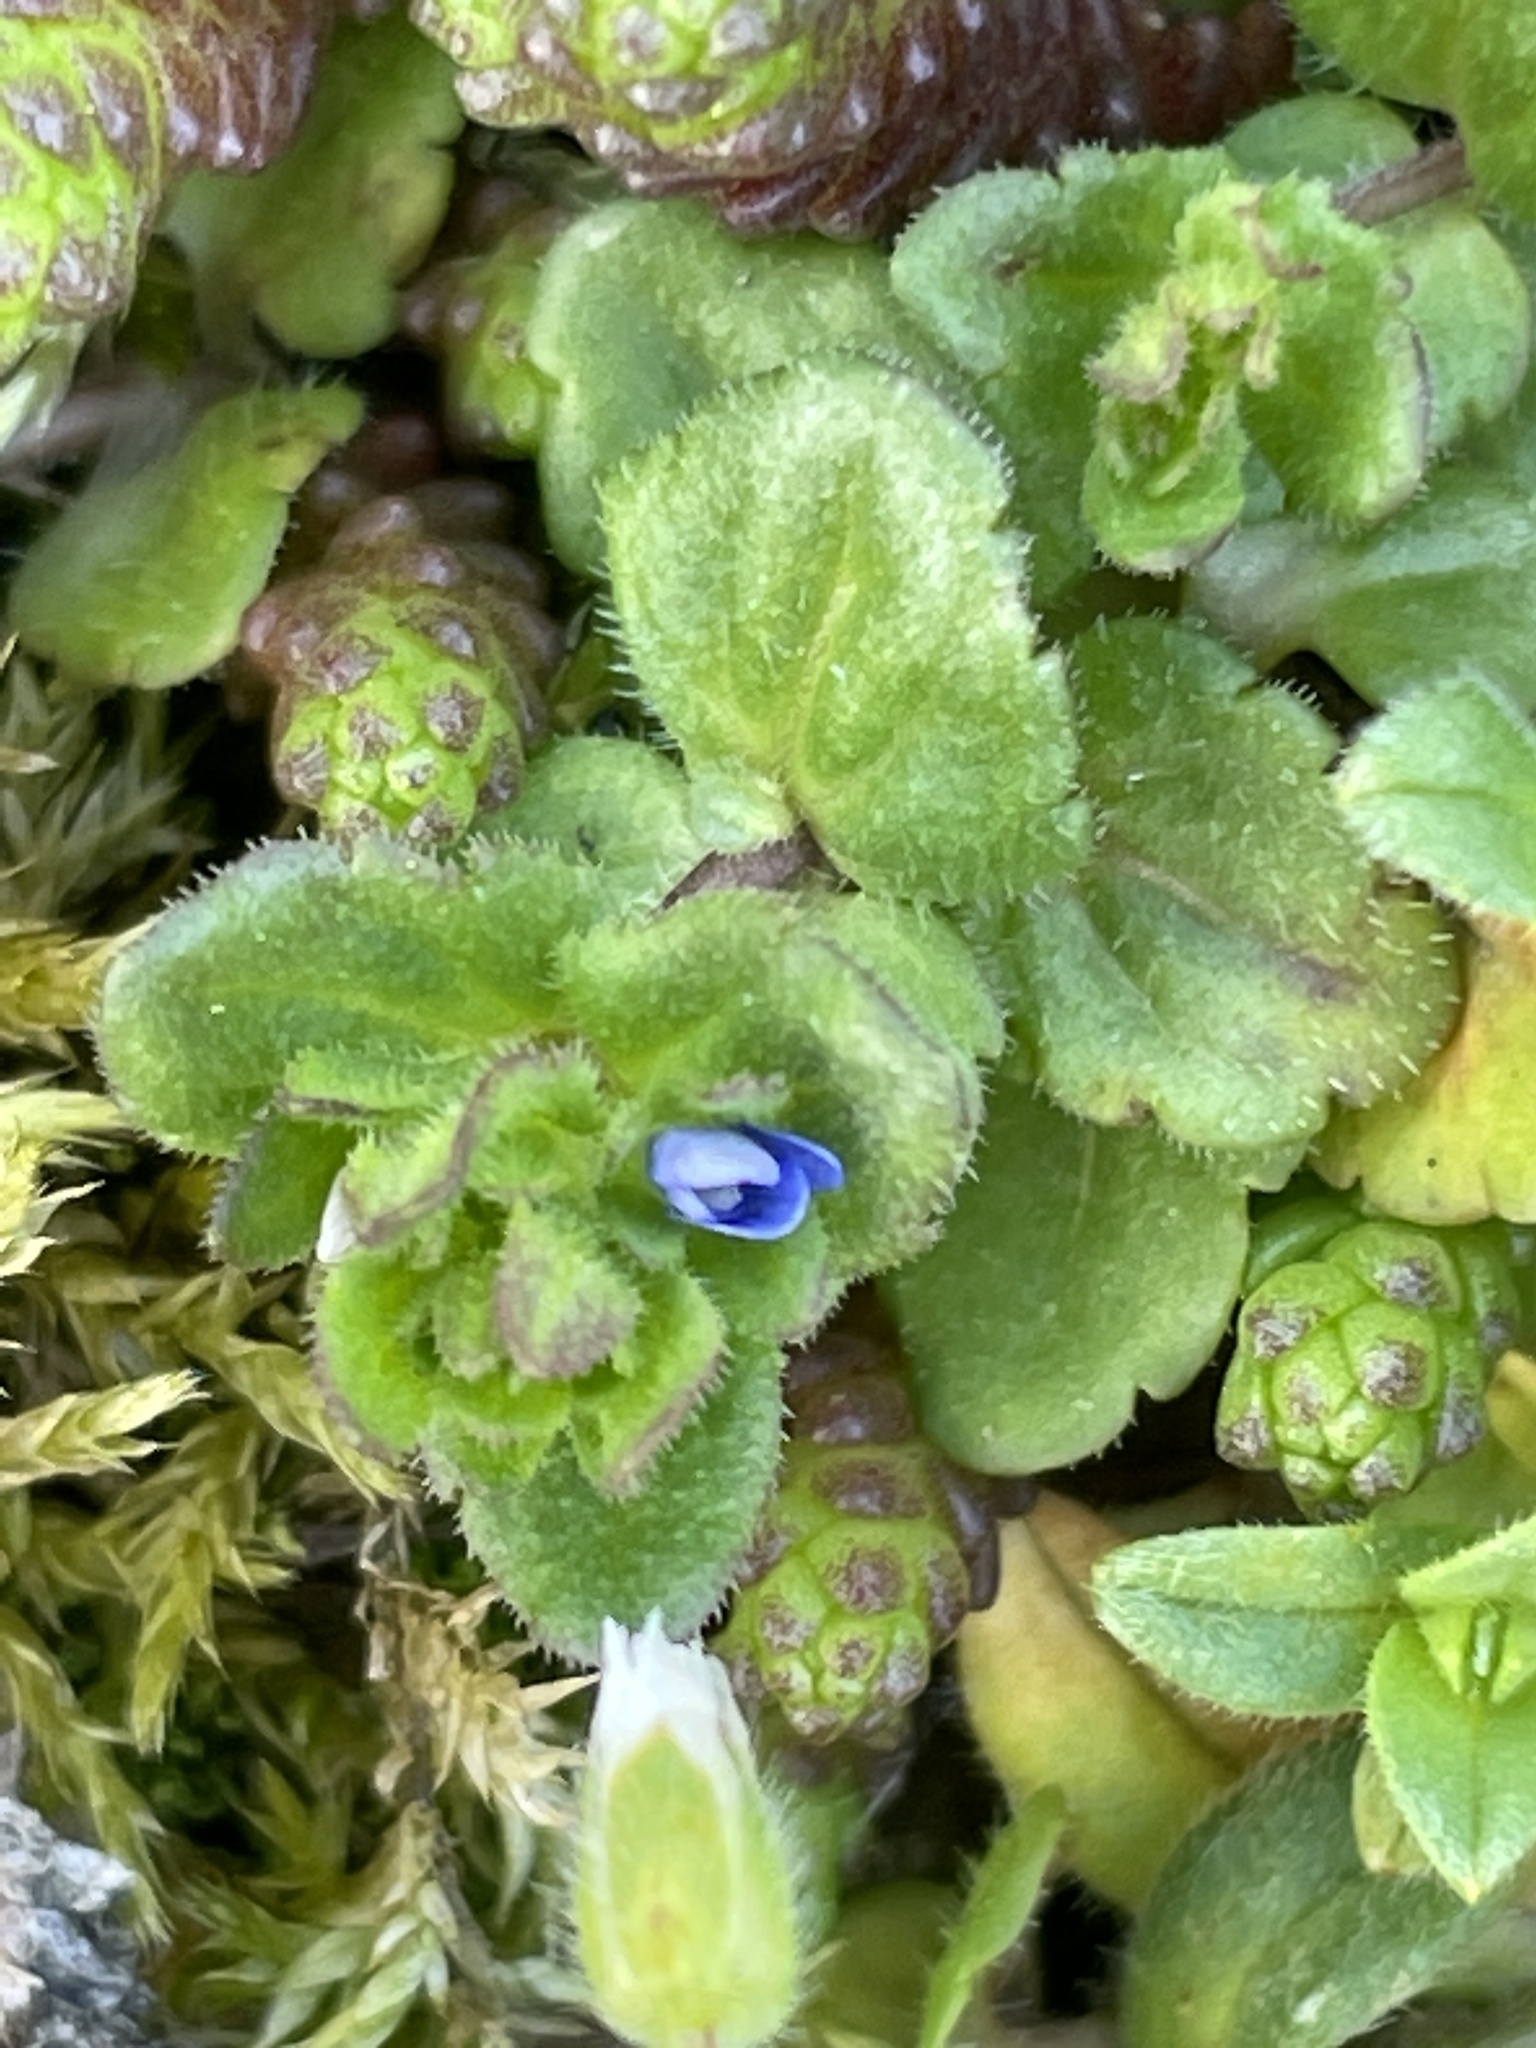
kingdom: Plantae
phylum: Tracheophyta
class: Magnoliopsida
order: Lamiales
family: Plantaginaceae
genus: Veronica
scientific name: Veronica arvensis
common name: Corn speedwell
